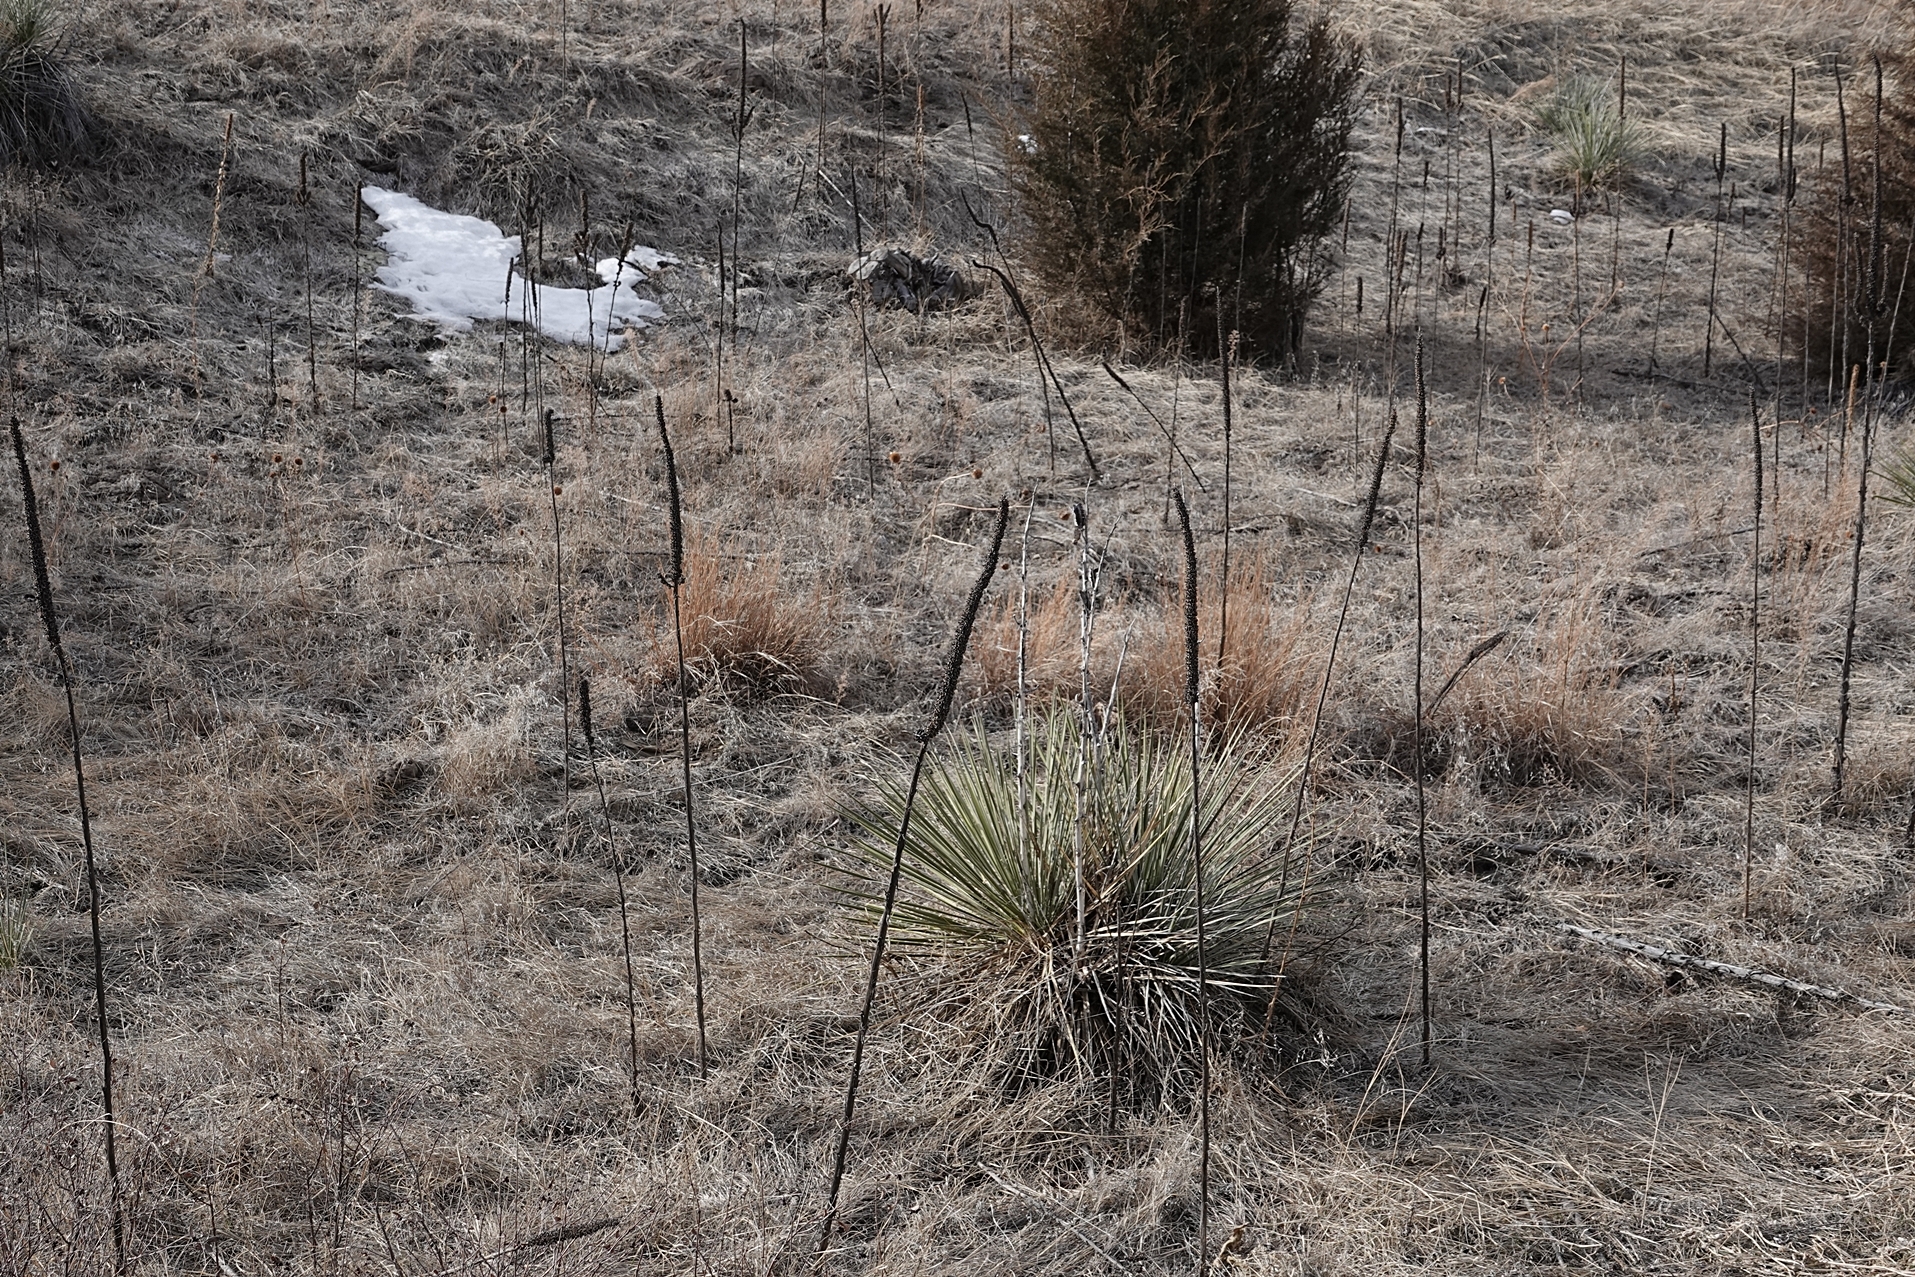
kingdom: Plantae
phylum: Tracheophyta
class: Magnoliopsida
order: Lamiales
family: Scrophulariaceae
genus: Verbascum
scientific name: Verbascum thapsus
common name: Common mullein
